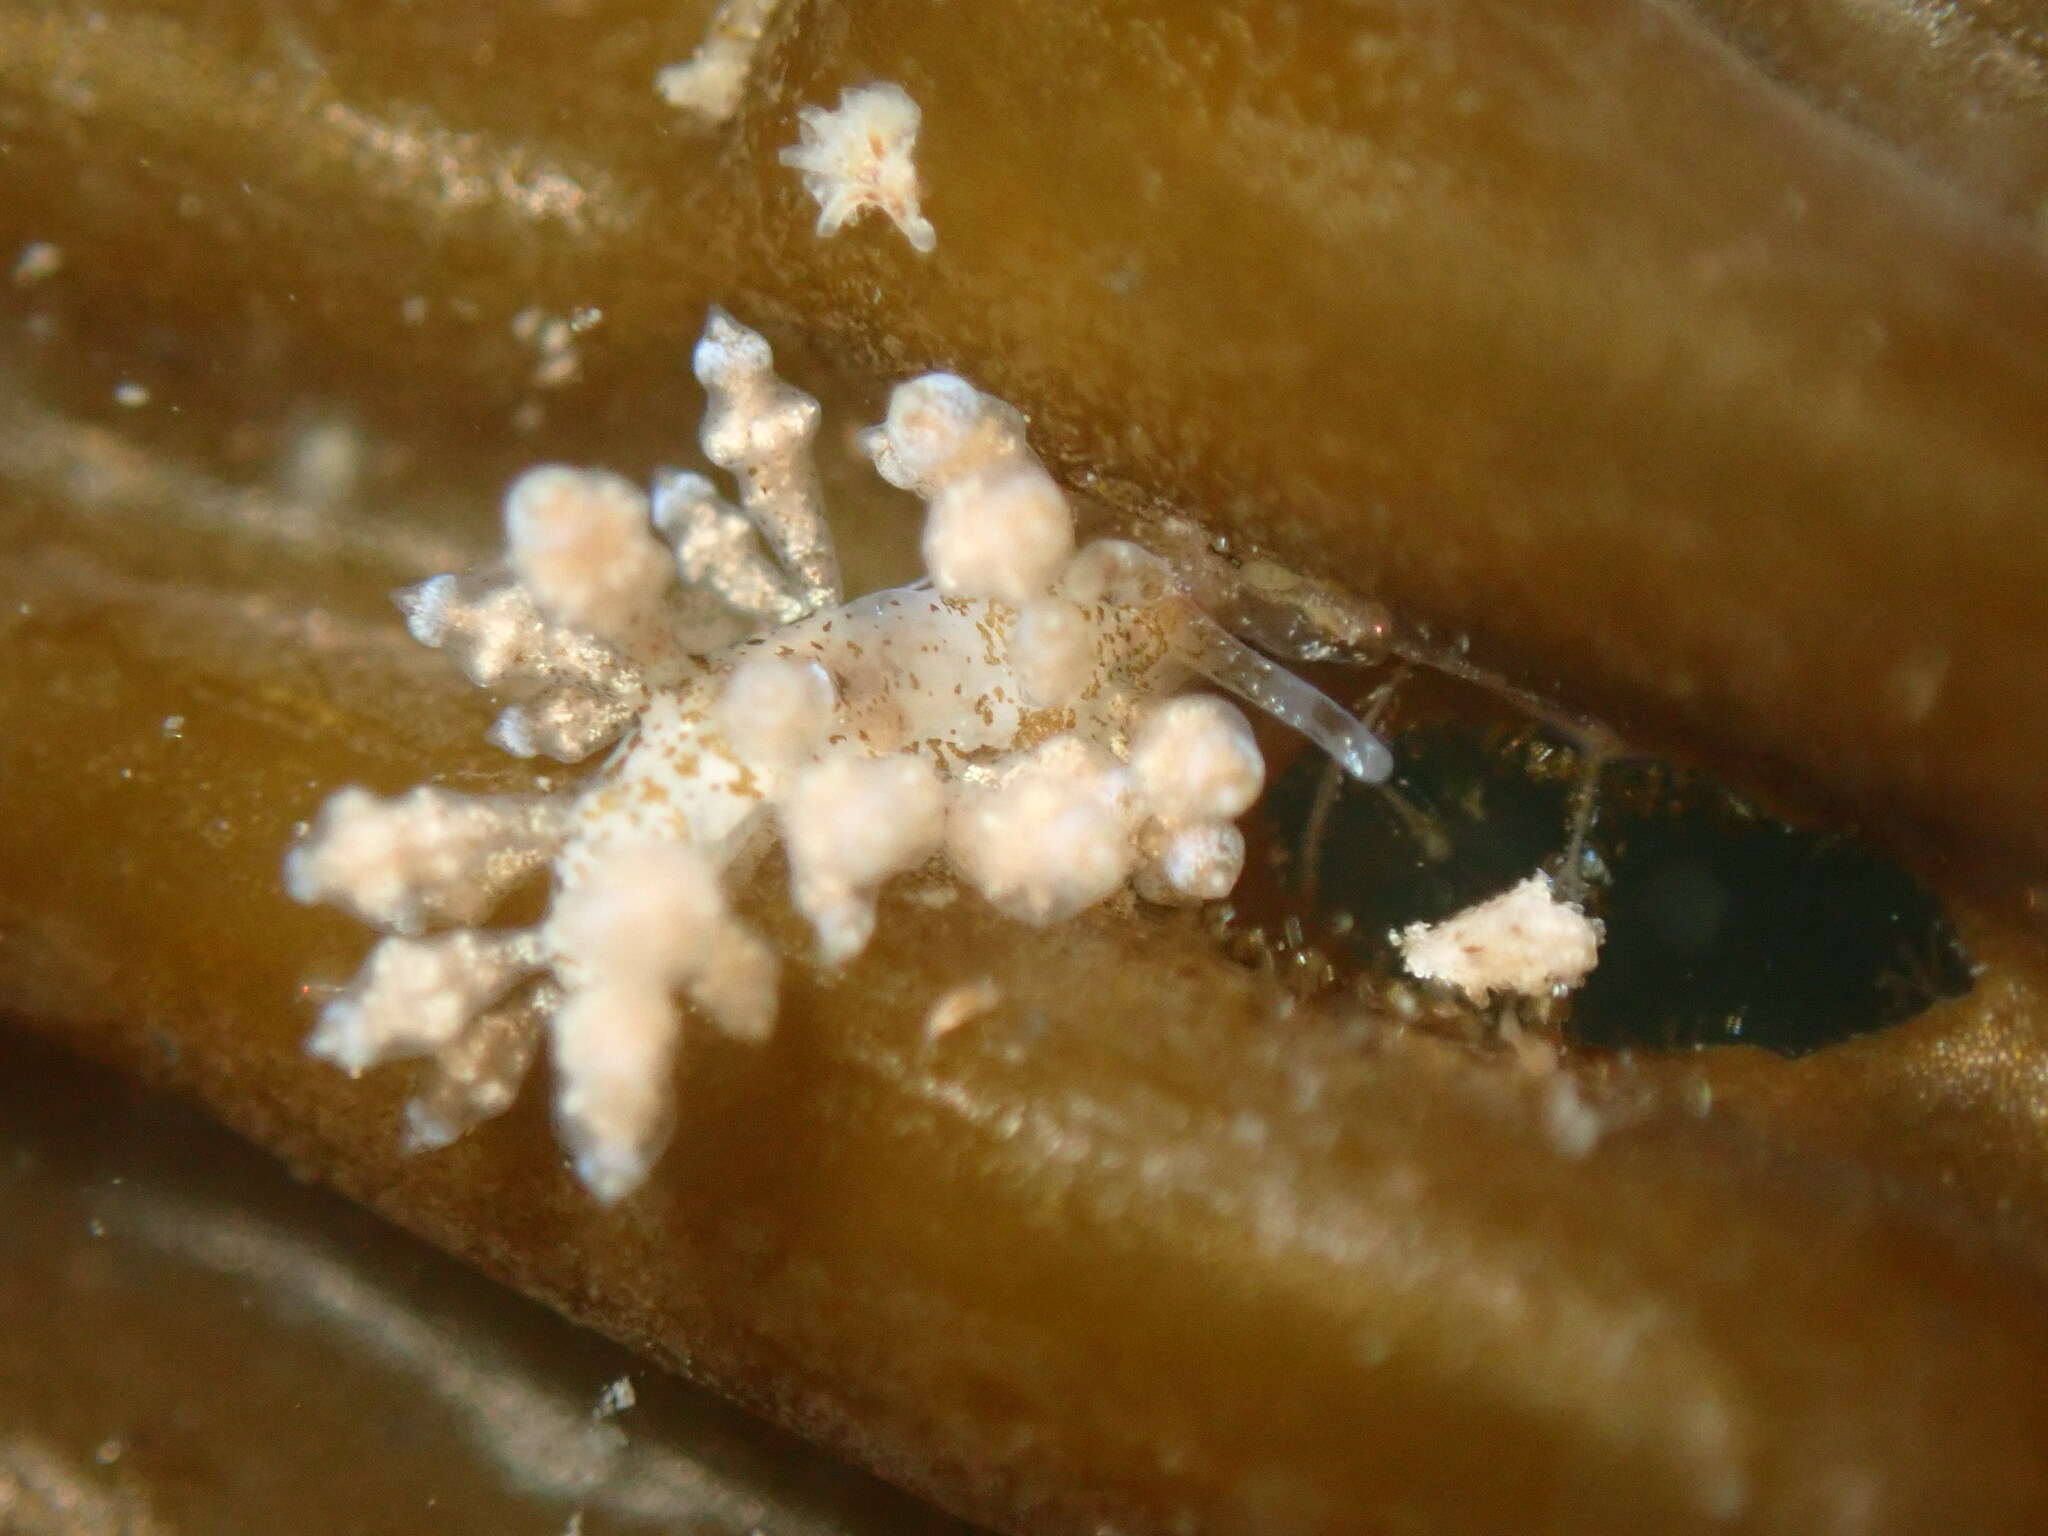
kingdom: Animalia
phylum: Mollusca
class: Gastropoda
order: Nudibranchia
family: Eubranchidae
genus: Eubranchus
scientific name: Eubranchus rustyus
